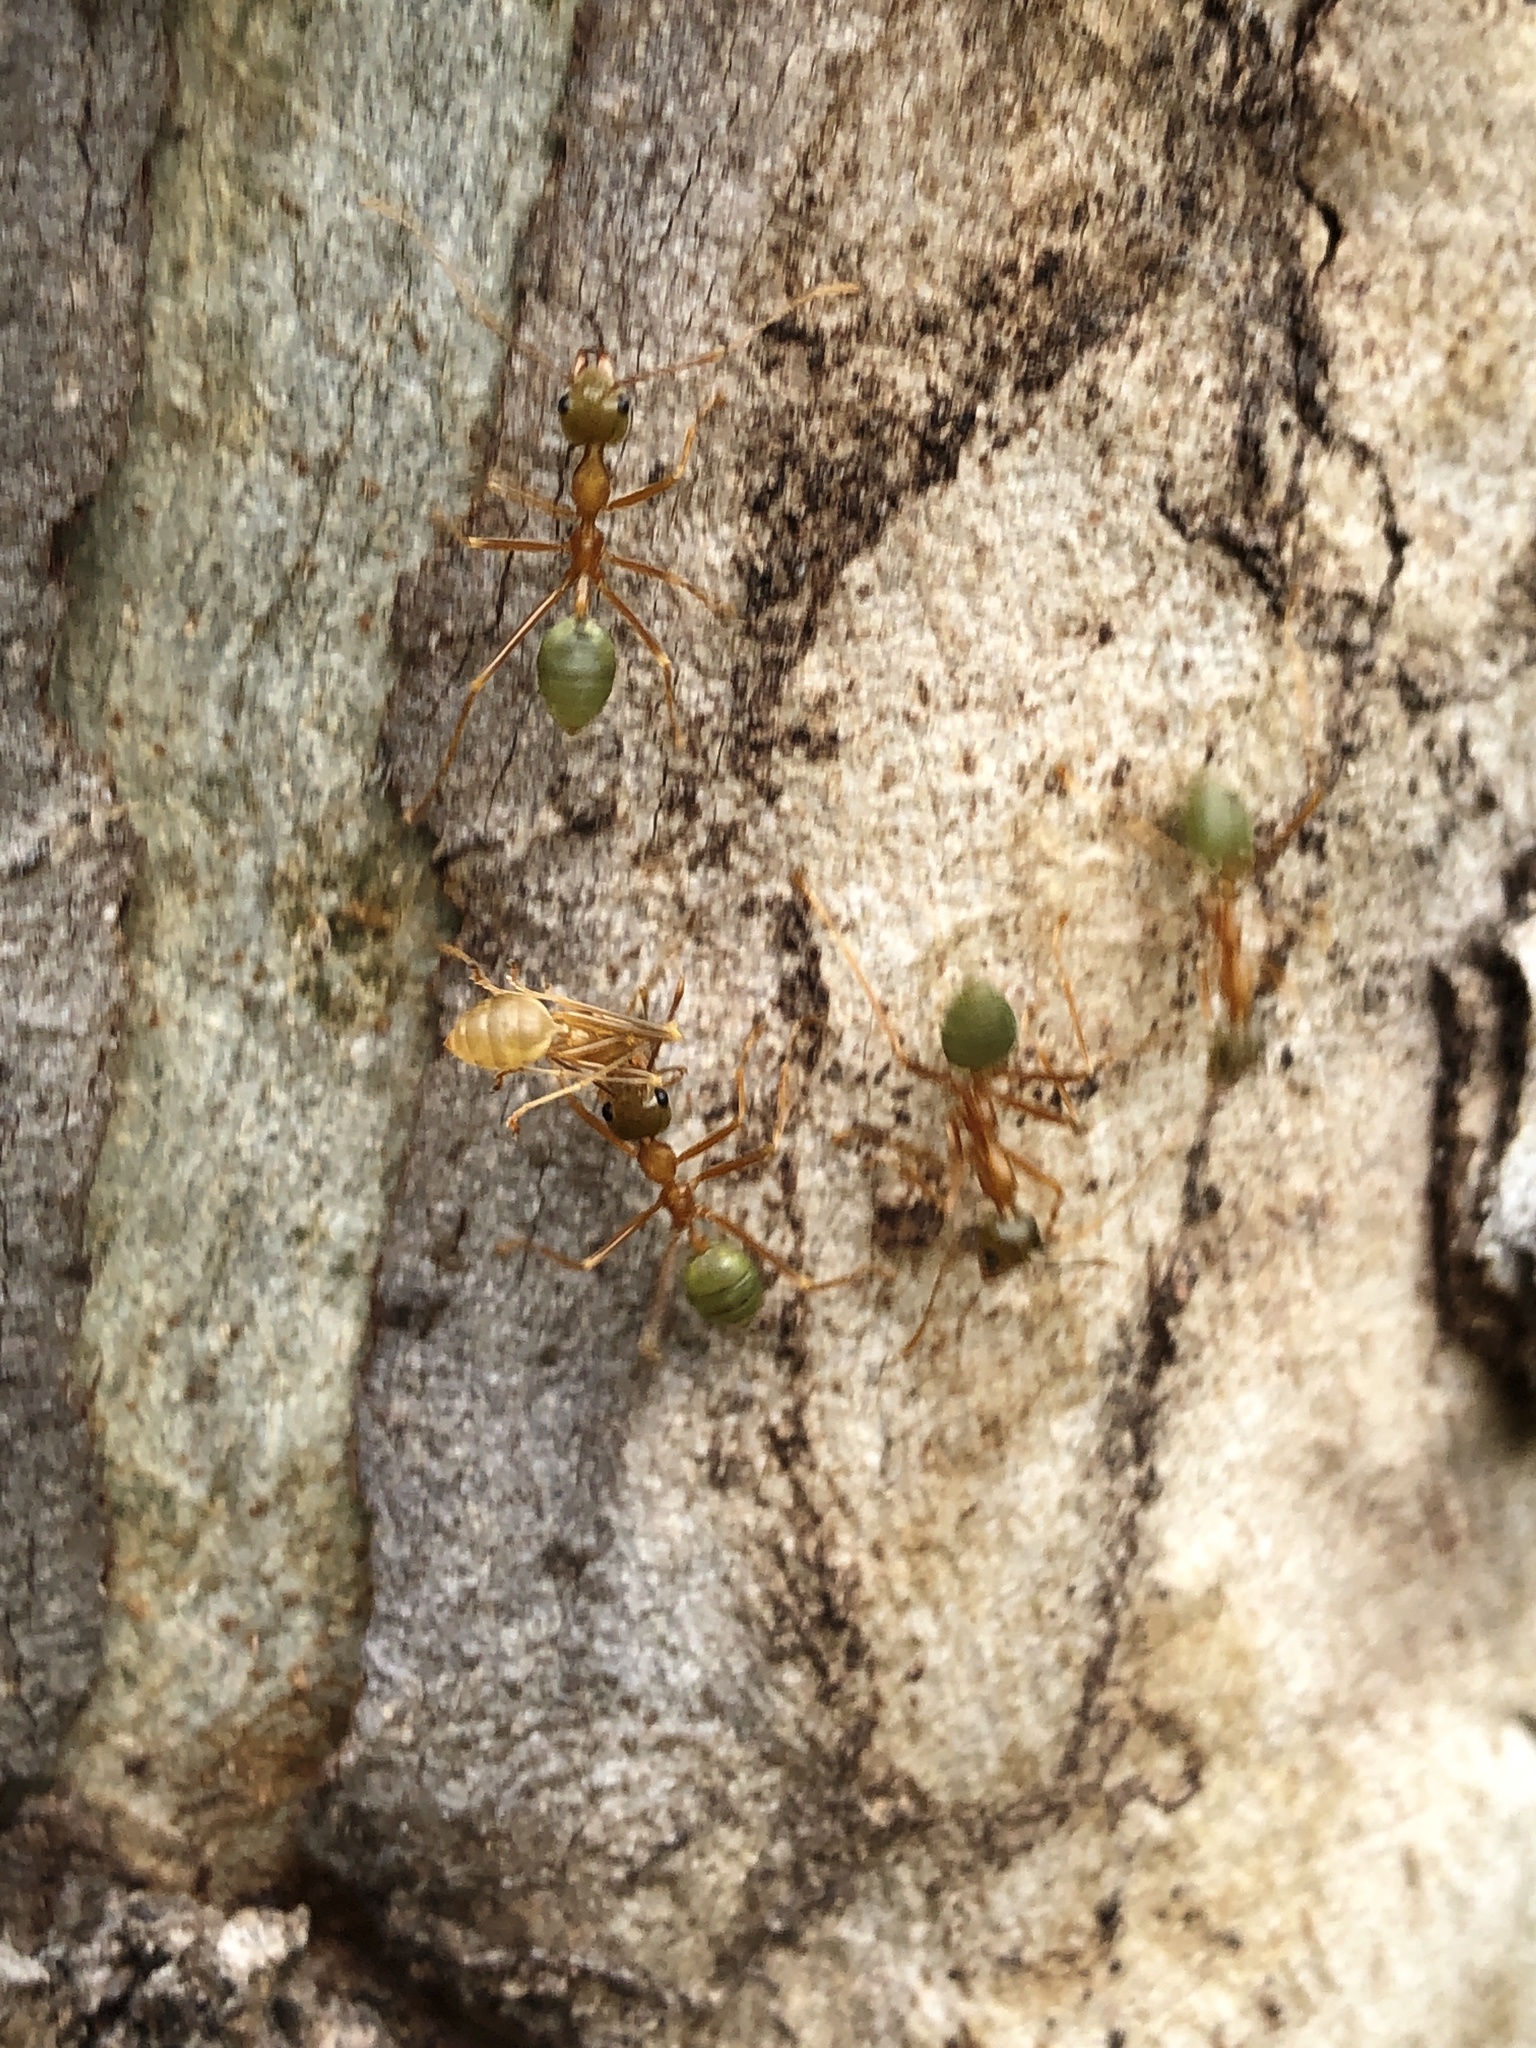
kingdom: Animalia
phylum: Arthropoda
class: Insecta
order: Hymenoptera
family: Formicidae
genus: Oecophylla
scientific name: Oecophylla smaragdina
